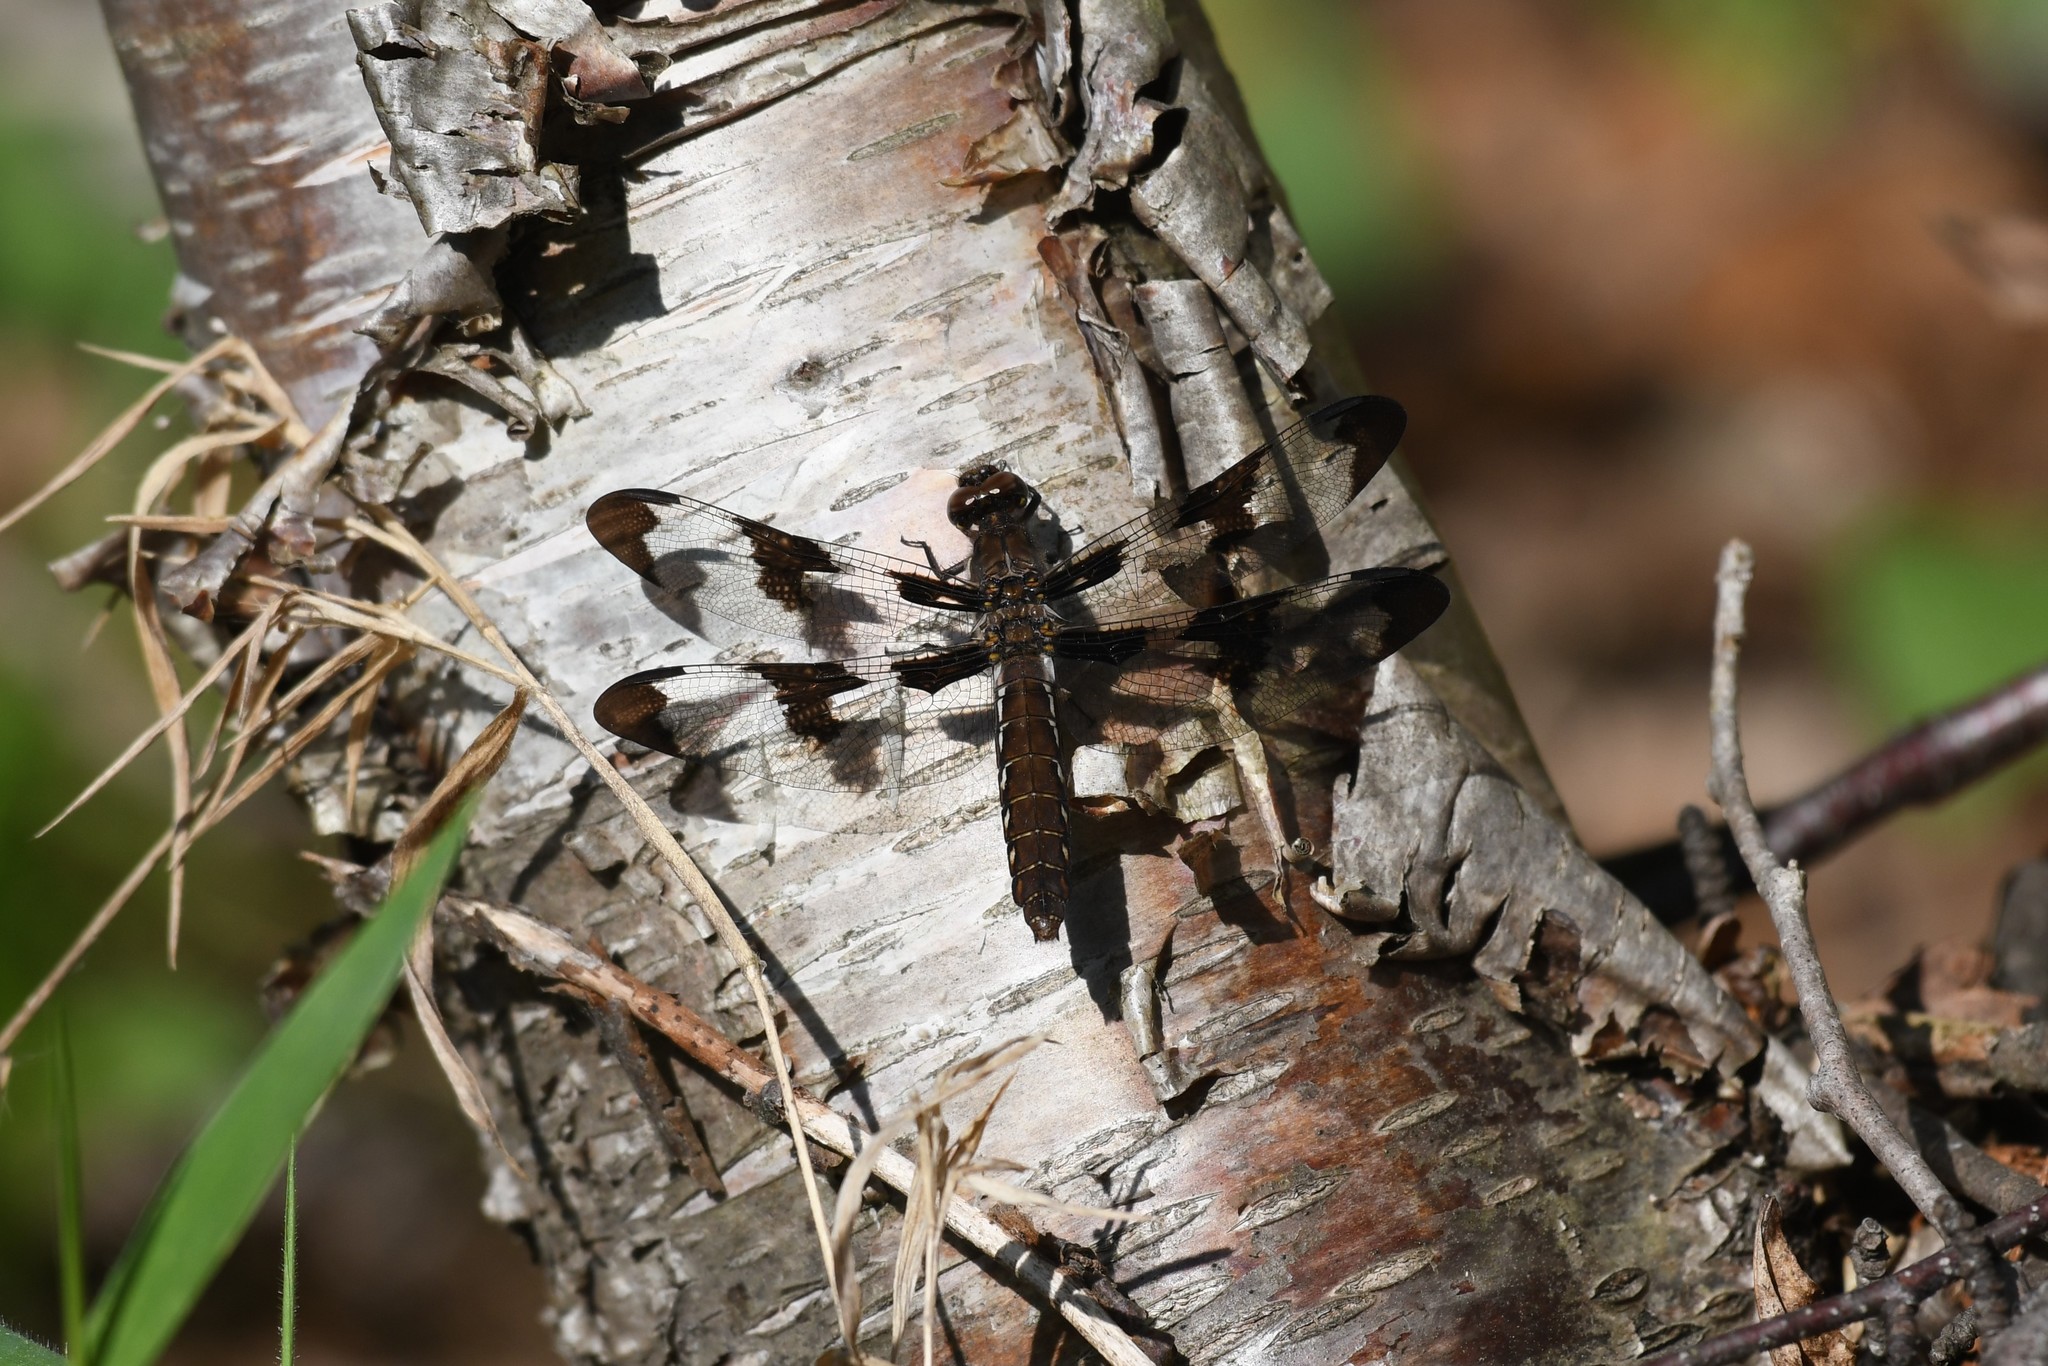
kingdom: Animalia
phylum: Arthropoda
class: Insecta
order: Odonata
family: Libellulidae
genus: Plathemis
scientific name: Plathemis lydia
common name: Common whitetail
